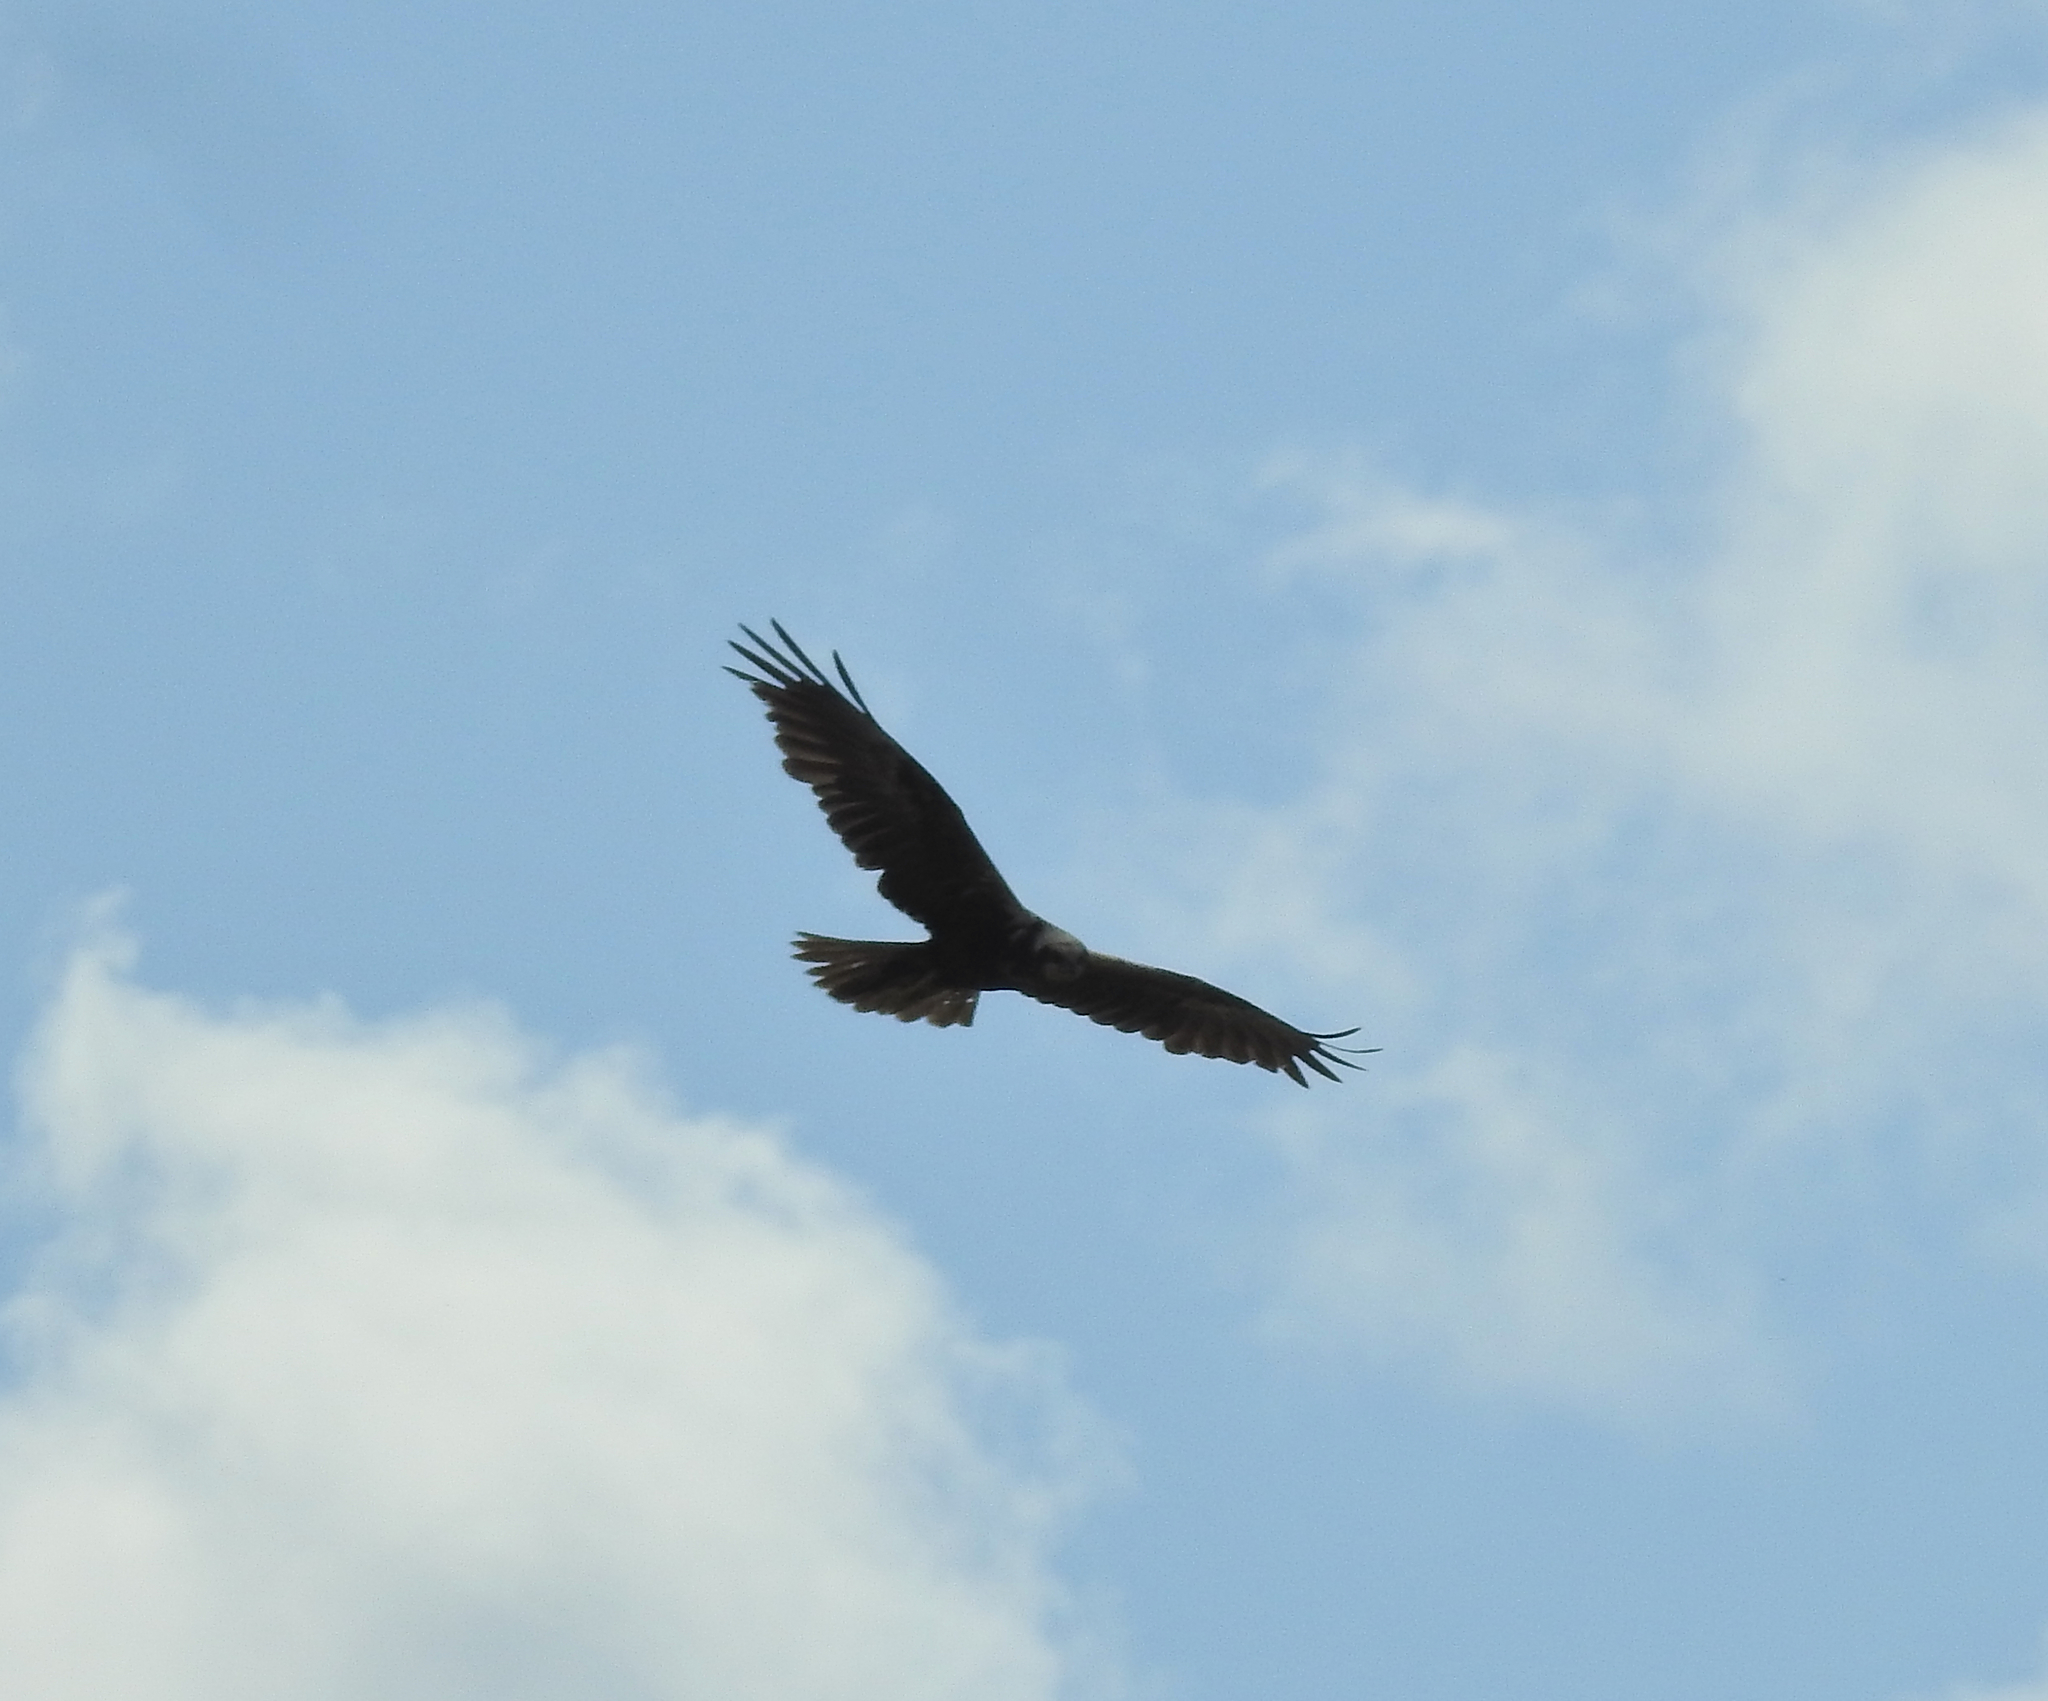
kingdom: Animalia
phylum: Chordata
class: Aves
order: Accipitriformes
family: Accipitridae
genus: Circus
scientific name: Circus aeruginosus
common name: Western marsh harrier
